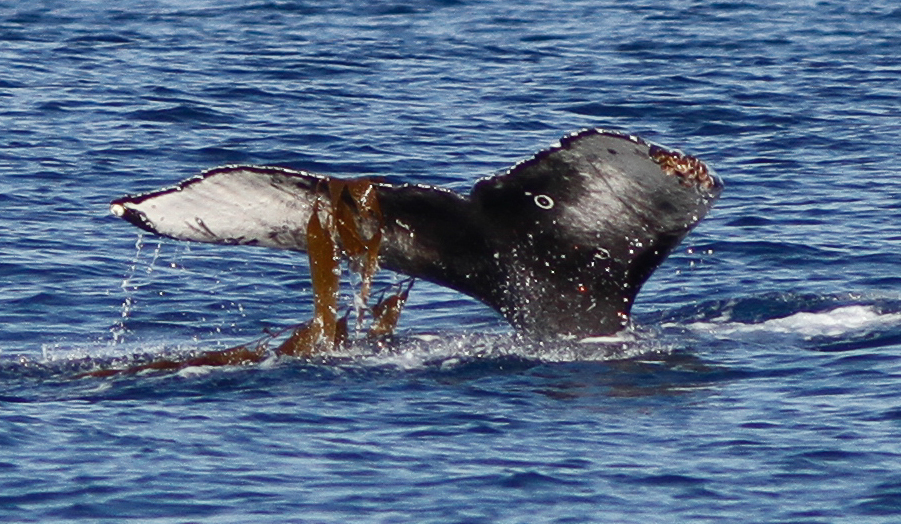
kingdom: Animalia
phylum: Chordata
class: Mammalia
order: Cetacea
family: Balaenopteridae
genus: Megaptera
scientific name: Megaptera novaeangliae
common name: Humpback whale
